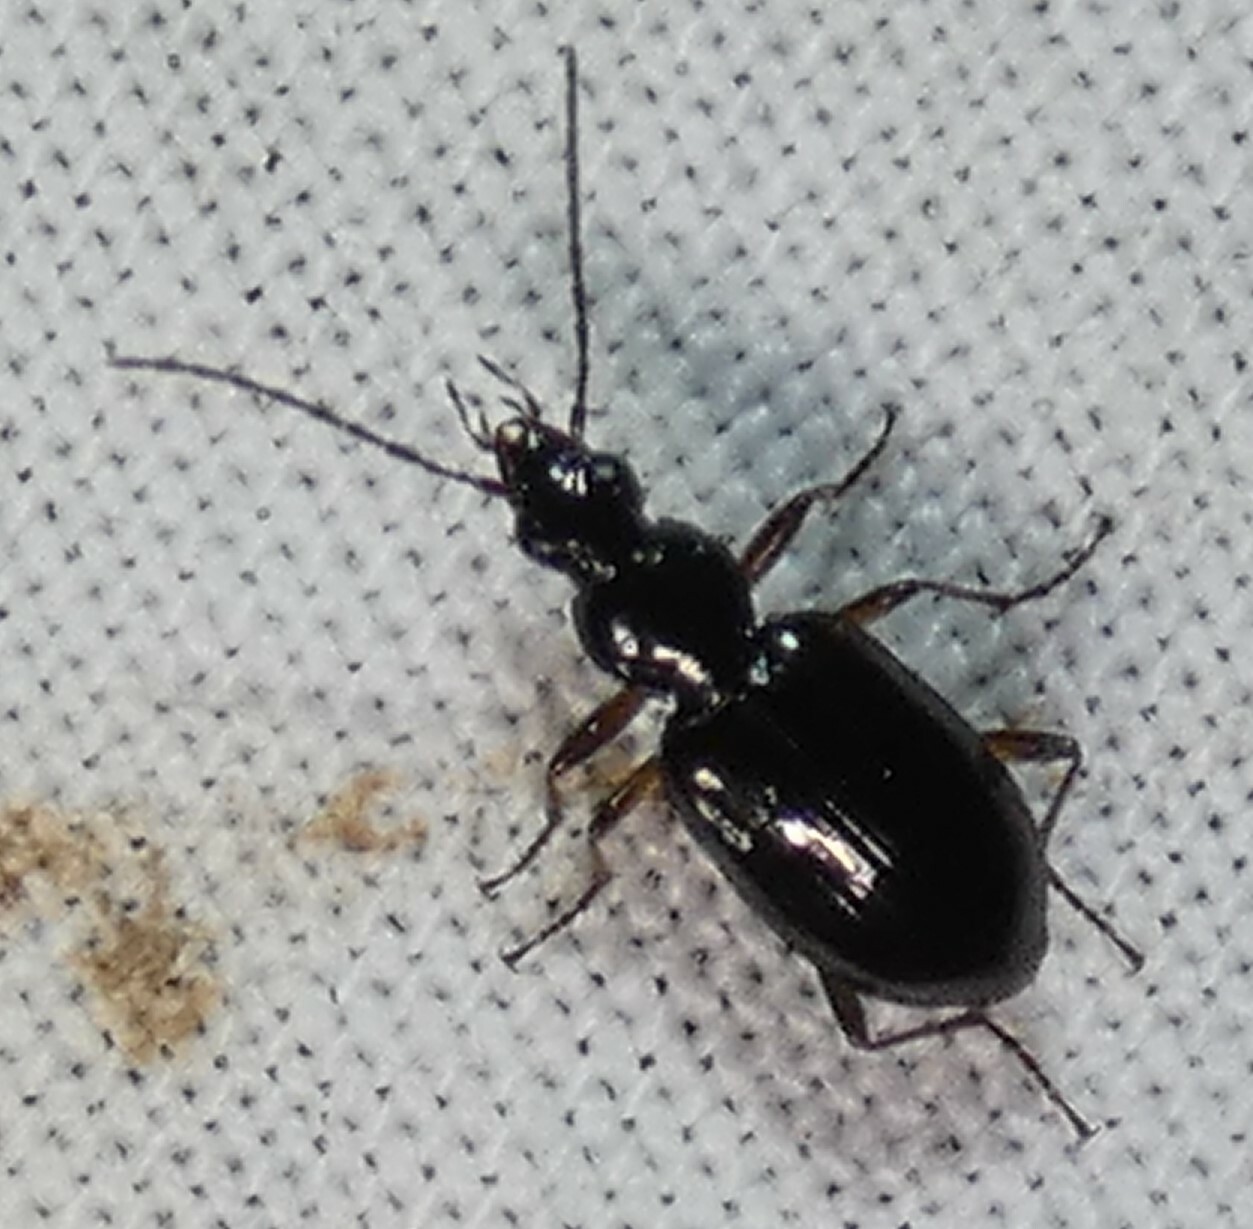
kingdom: Animalia
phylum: Arthropoda
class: Insecta
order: Coleoptera
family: Carabidae
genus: Agonum
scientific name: Agonum aeruginosum
